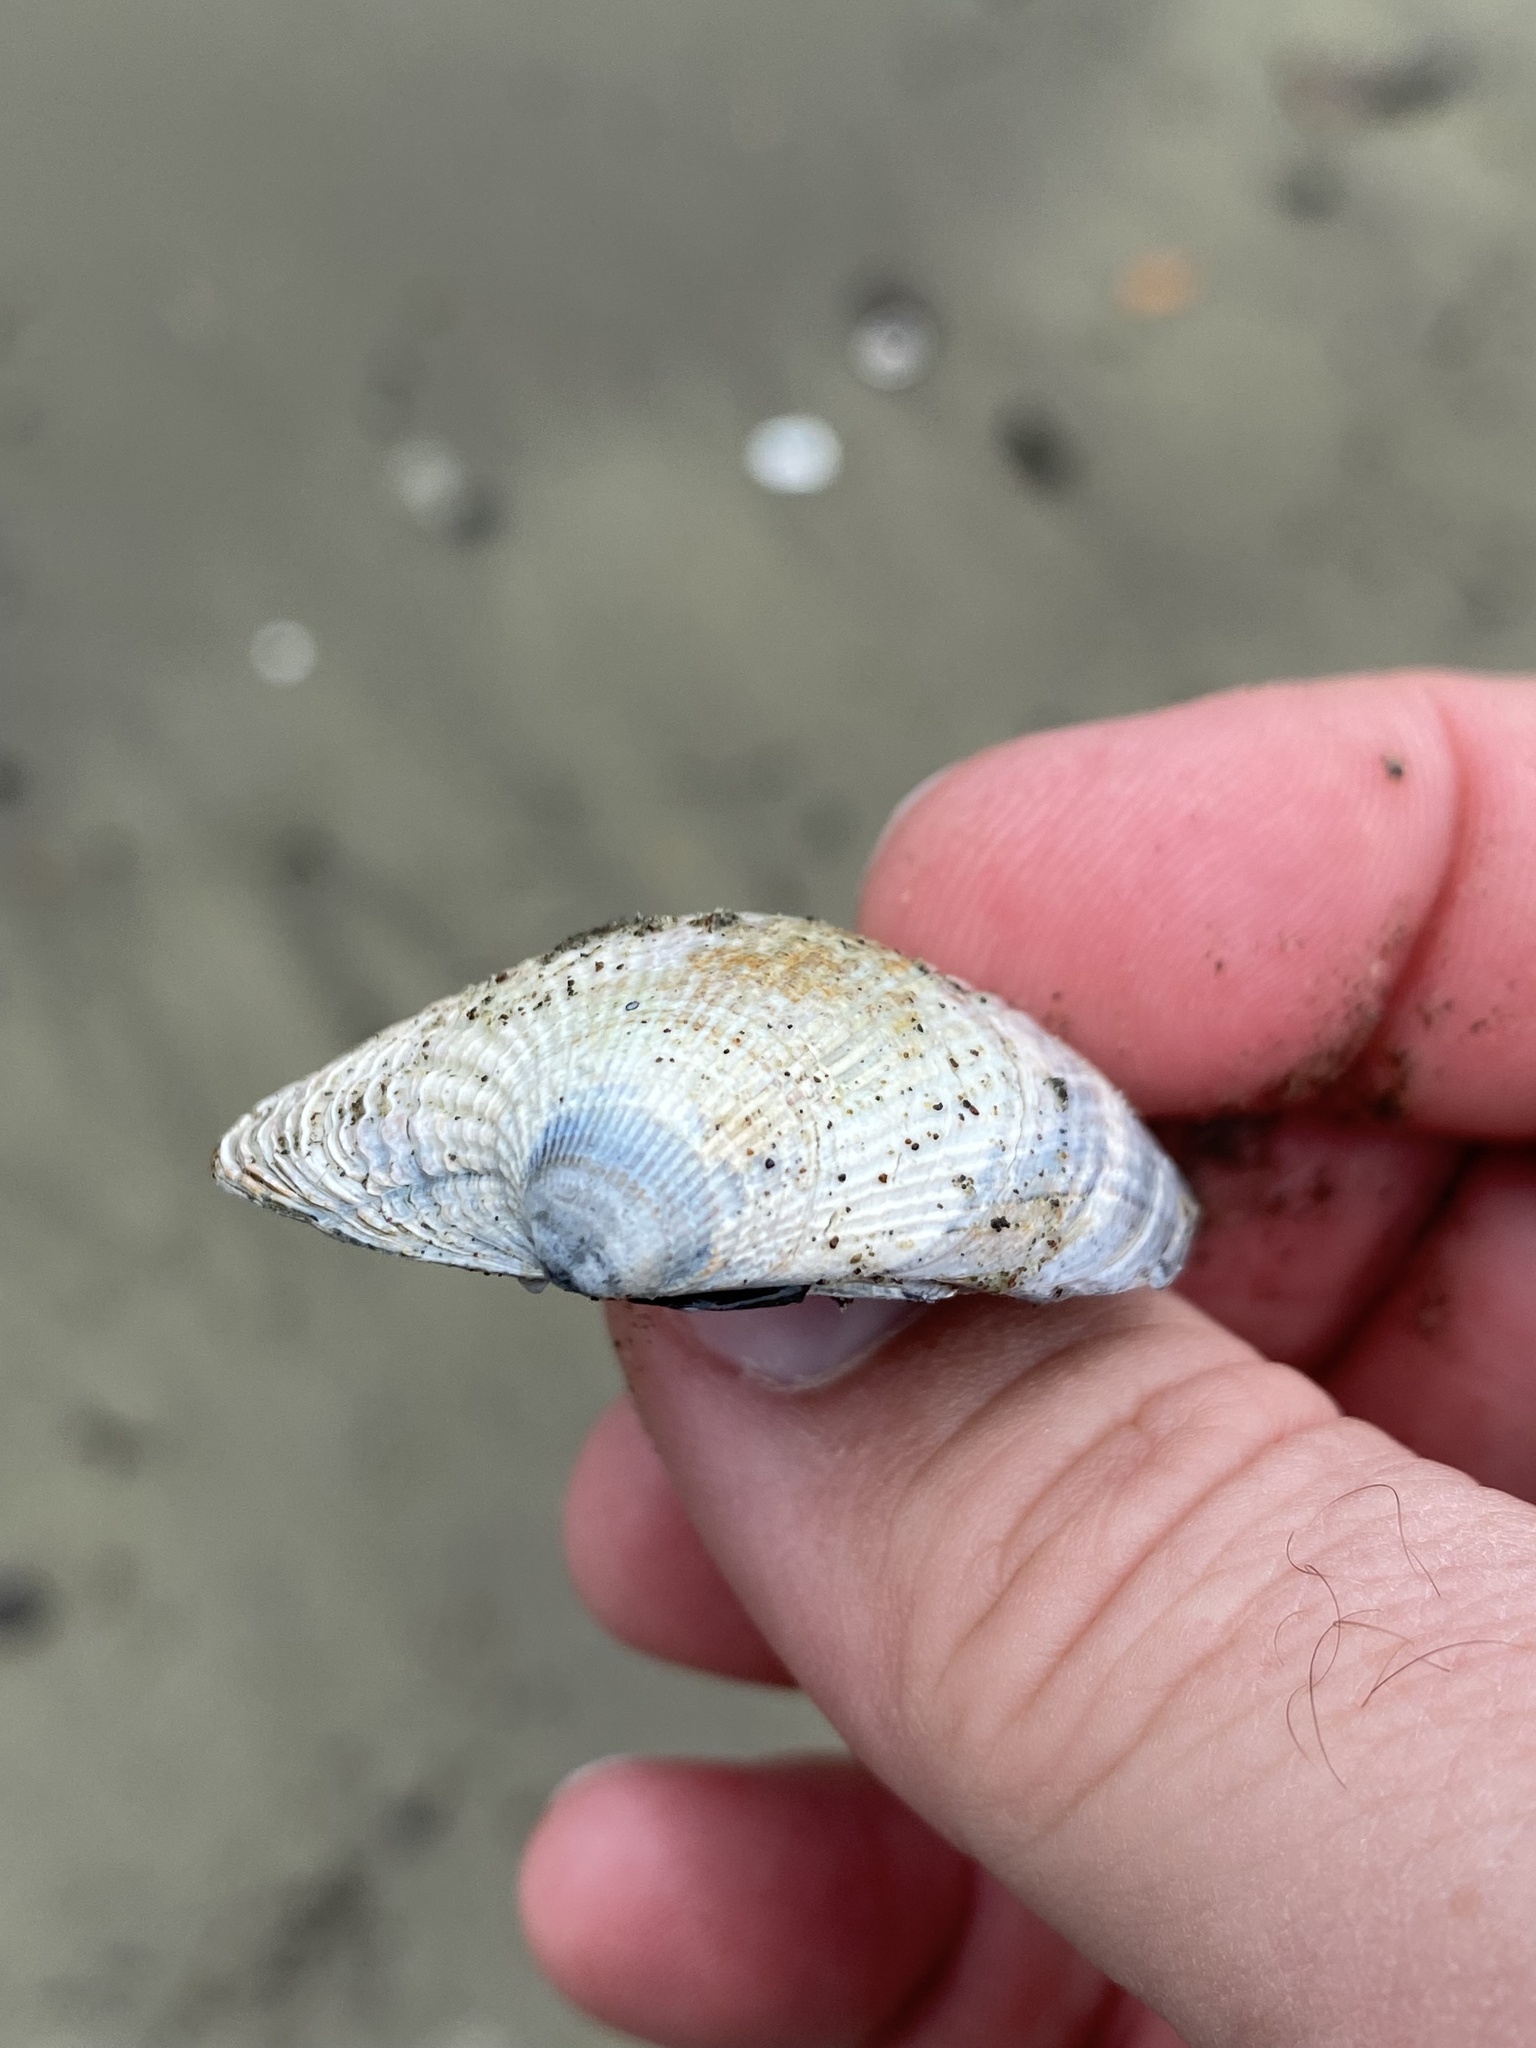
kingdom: Animalia
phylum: Mollusca
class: Bivalvia
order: Venerida
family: Veneridae
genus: Austrovenus
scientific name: Austrovenus stutchburyi
